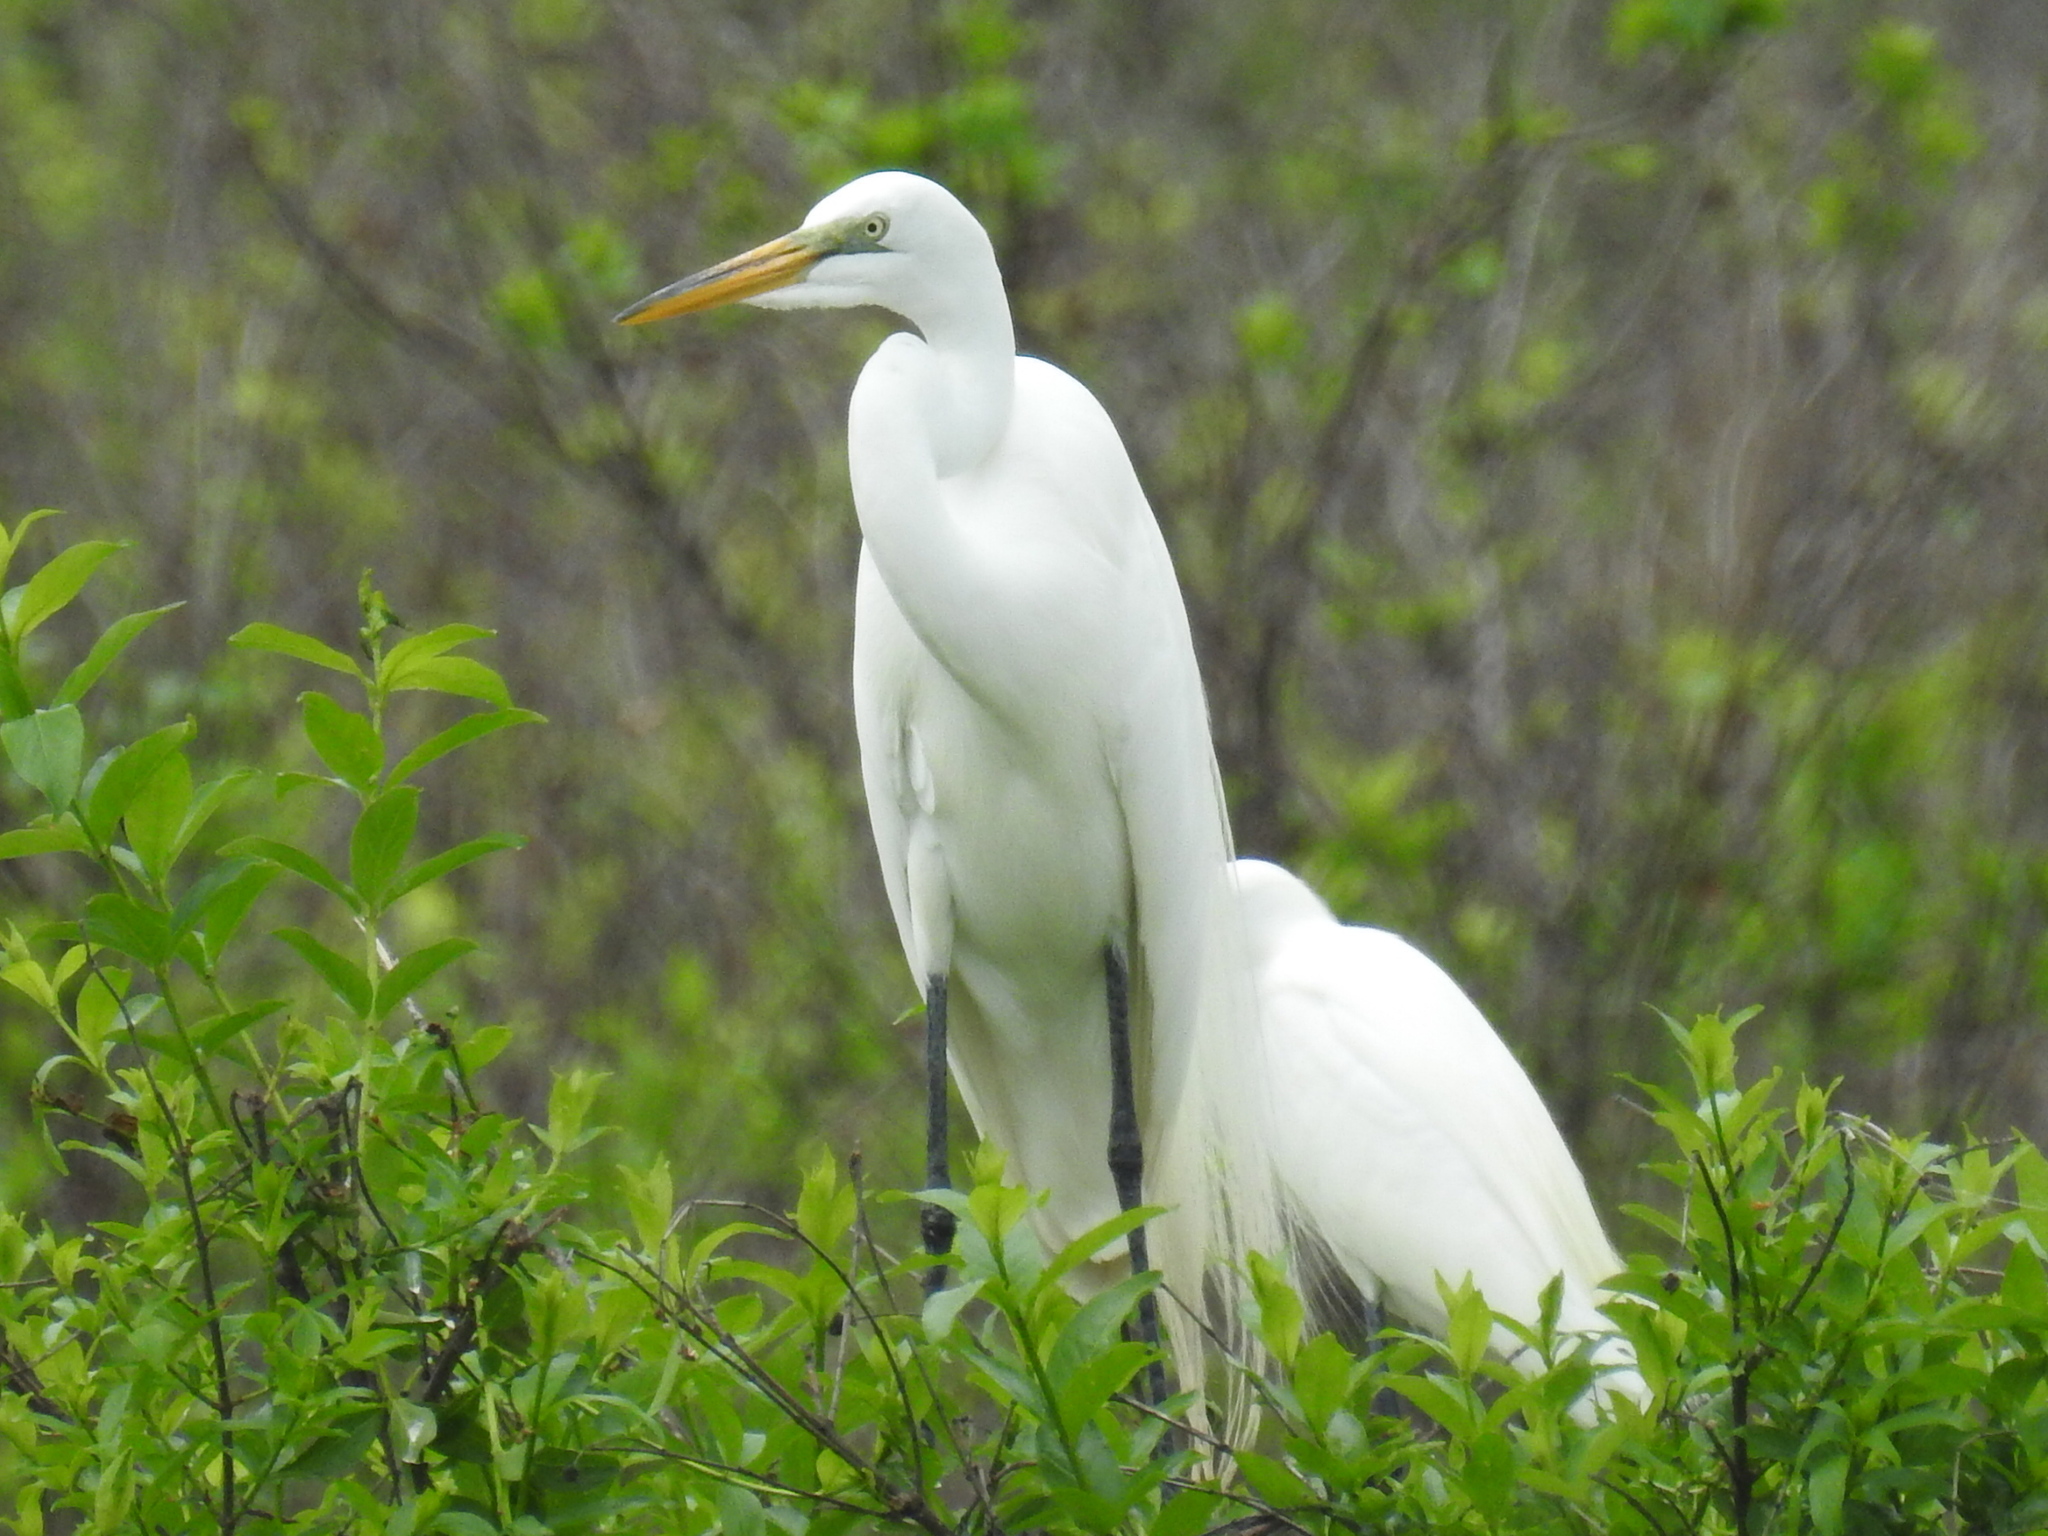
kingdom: Animalia
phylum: Chordata
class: Aves
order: Pelecaniformes
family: Ardeidae
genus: Ardea
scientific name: Ardea alba
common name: Great egret
